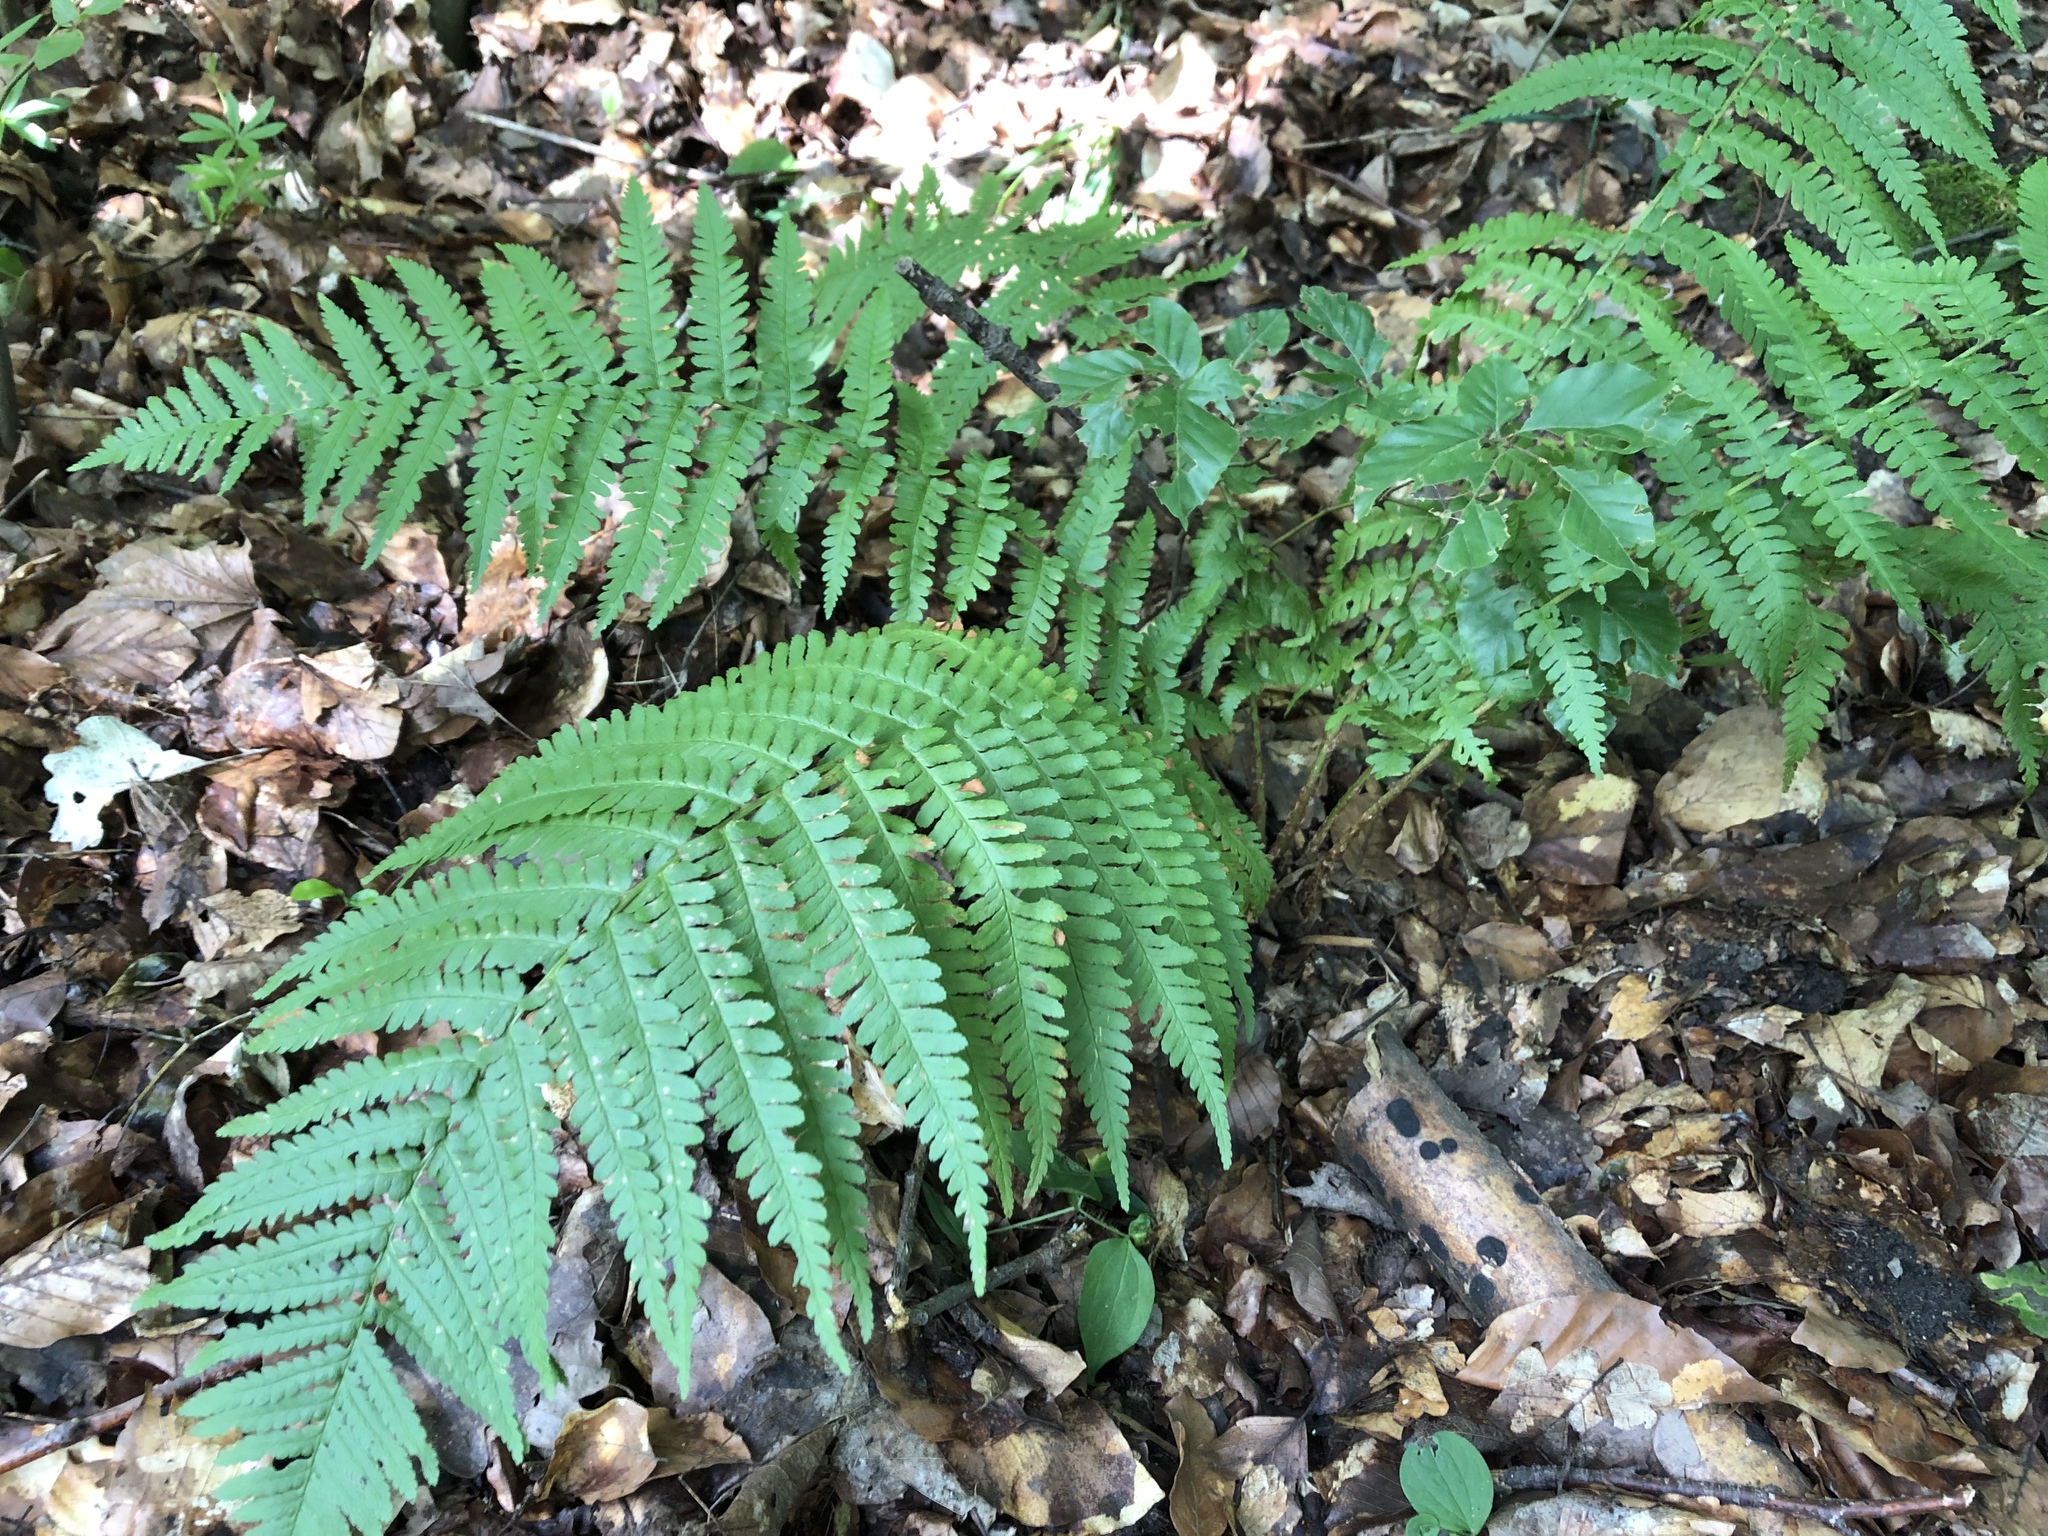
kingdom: Plantae
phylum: Tracheophyta
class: Polypodiopsida
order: Polypodiales
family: Dryopteridaceae
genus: Dryopteris
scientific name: Dryopteris filix-mas
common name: Male fern
